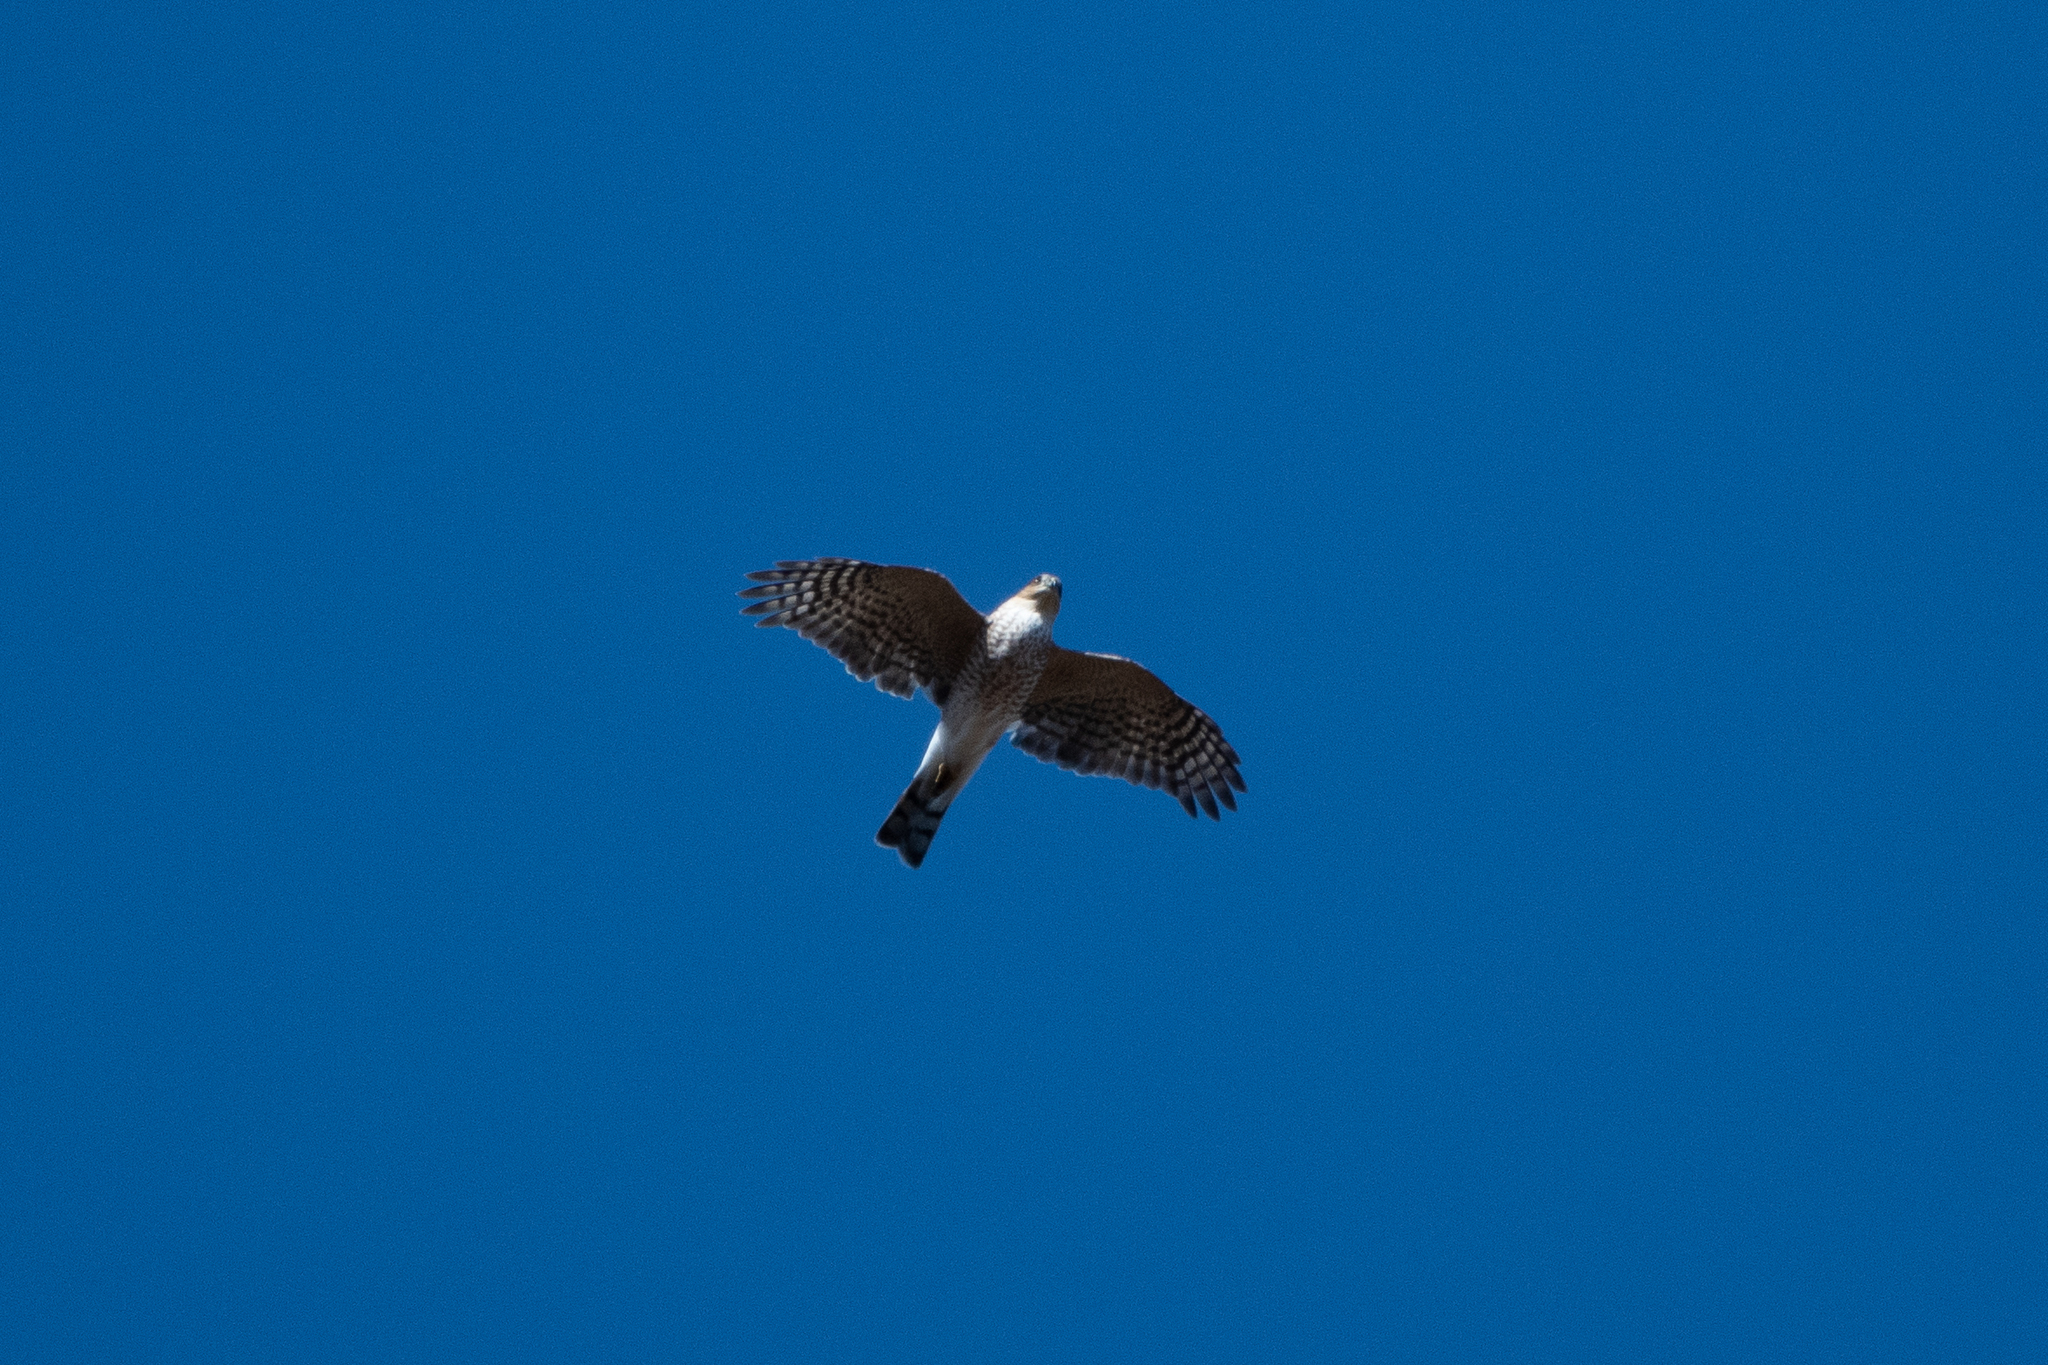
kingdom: Animalia
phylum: Chordata
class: Aves
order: Accipitriformes
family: Accipitridae
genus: Accipiter
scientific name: Accipiter striatus
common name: Sharp-shinned hawk
